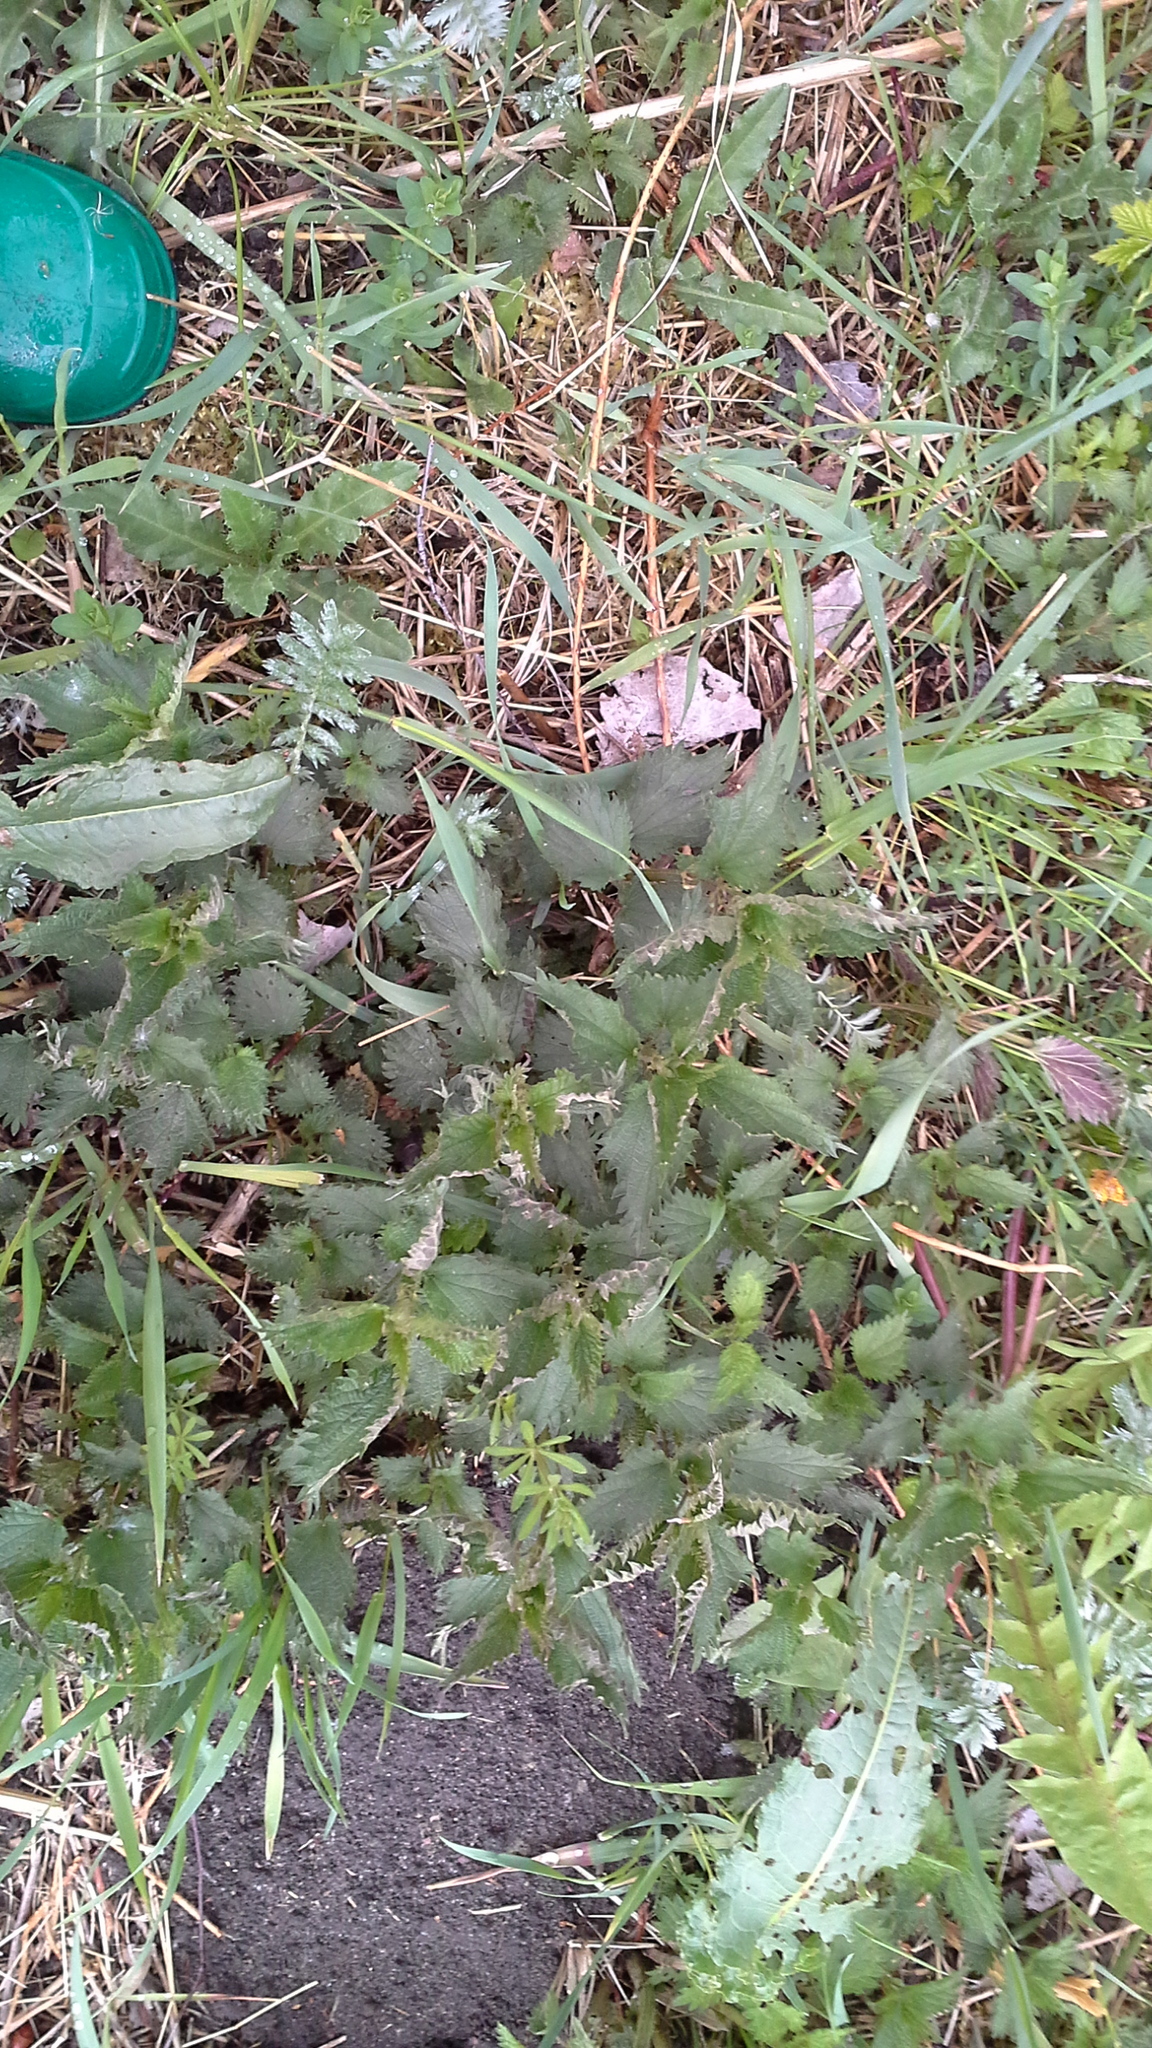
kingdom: Plantae
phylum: Tracheophyta
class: Magnoliopsida
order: Rosales
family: Urticaceae
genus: Urtica
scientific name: Urtica dioica
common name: Common nettle
